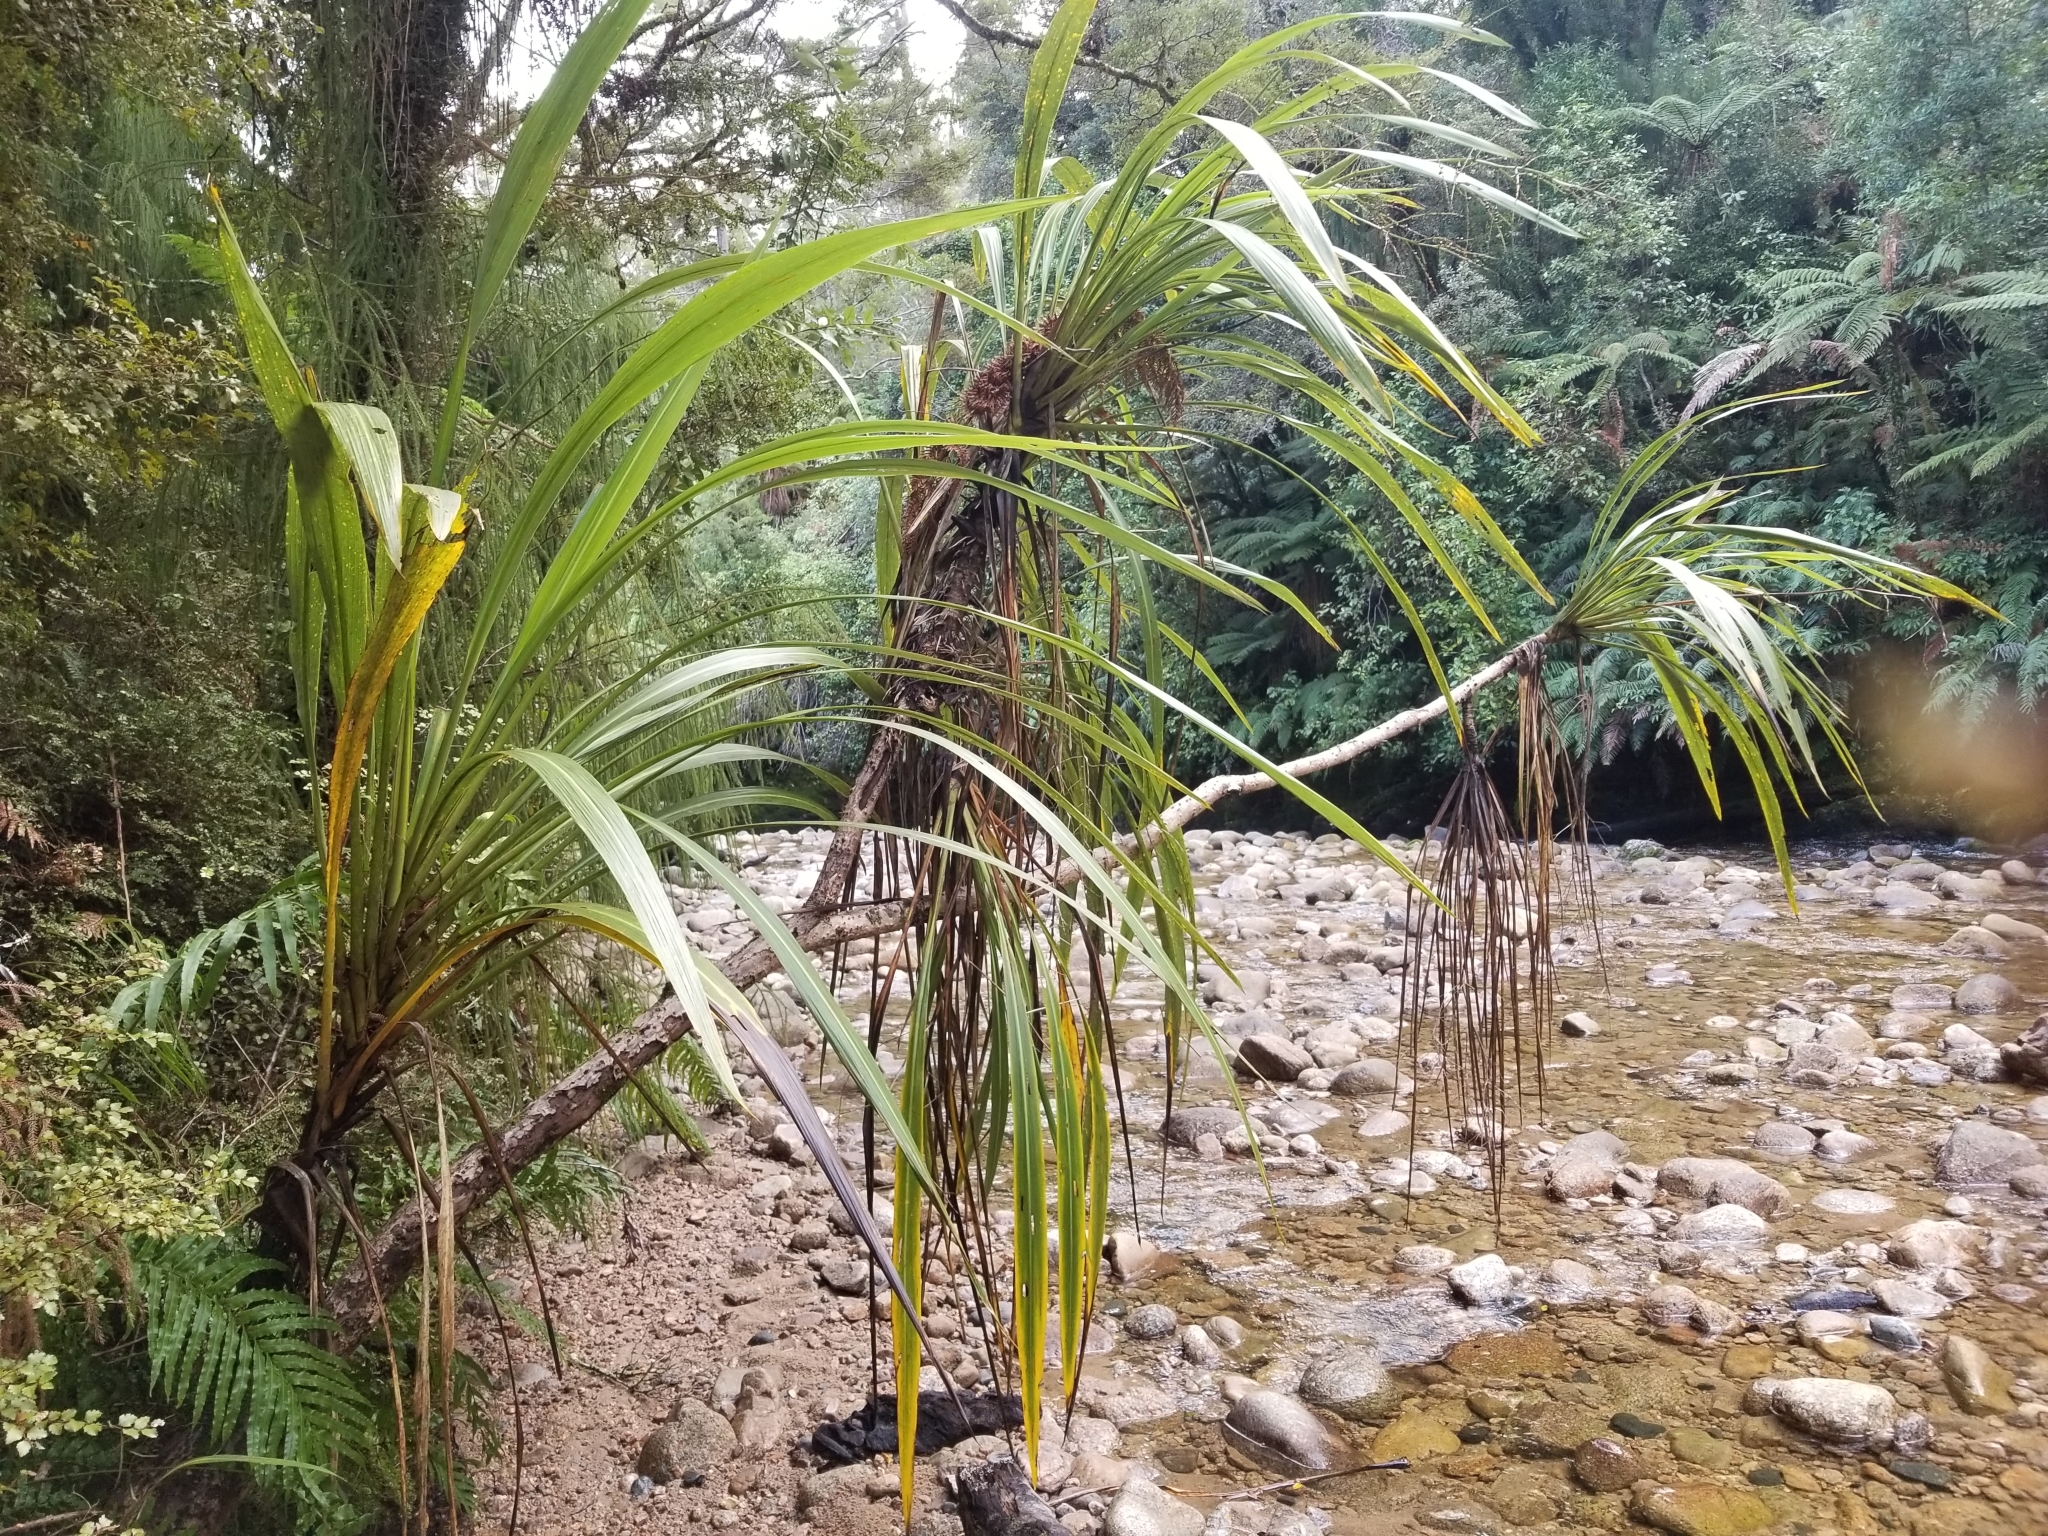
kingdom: Plantae
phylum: Tracheophyta
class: Liliopsida
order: Asparagales
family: Asparagaceae
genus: Cordyline
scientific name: Cordyline banksii
